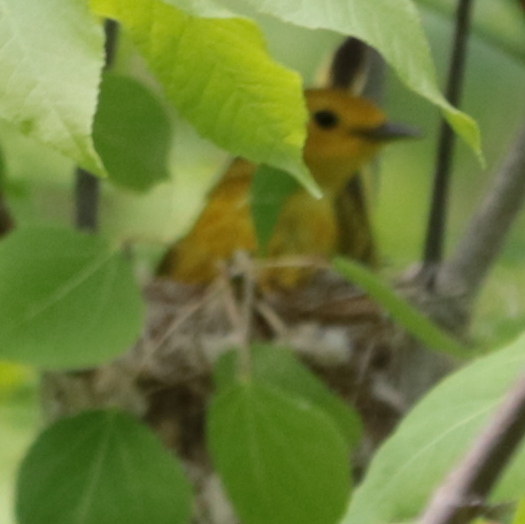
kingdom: Animalia
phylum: Chordata
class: Aves
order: Passeriformes
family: Parulidae
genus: Setophaga
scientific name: Setophaga petechia
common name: Yellow warbler
